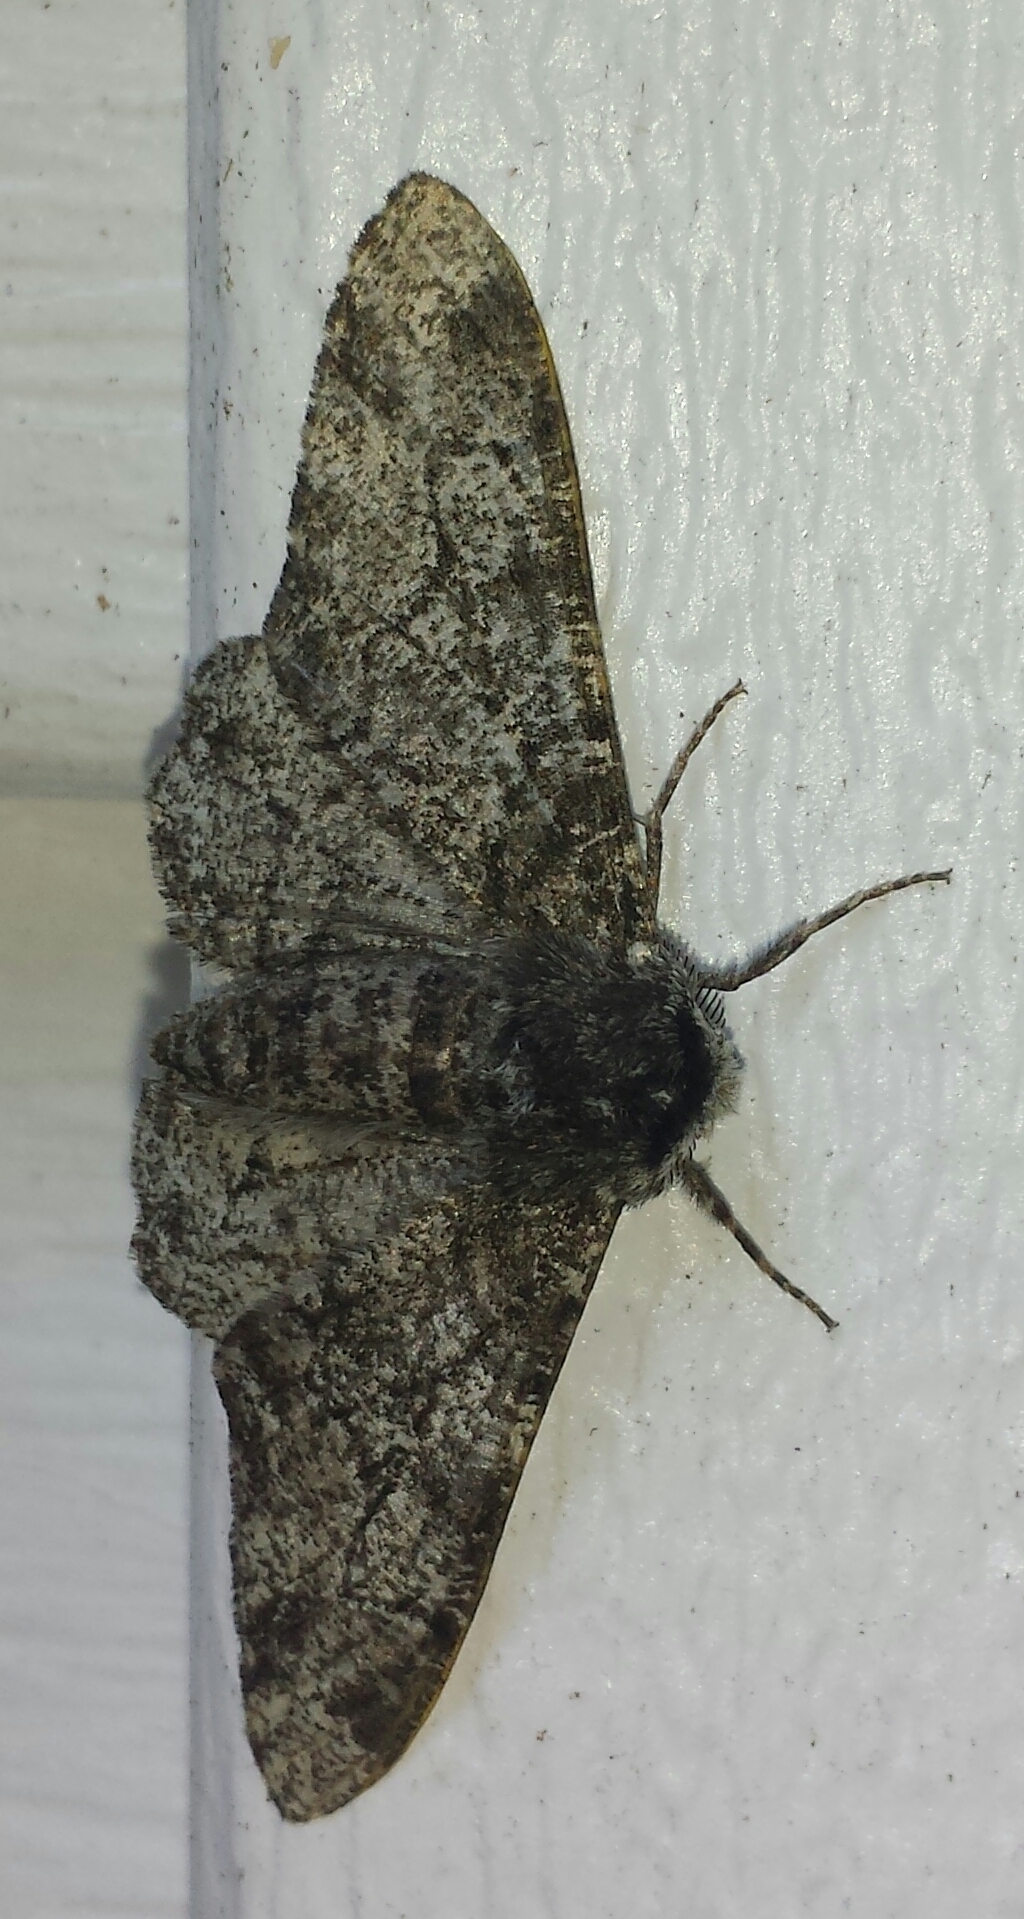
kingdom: Animalia
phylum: Arthropoda
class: Insecta
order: Lepidoptera
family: Geometridae
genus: Biston
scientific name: Biston betularia
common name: Peppered moth
